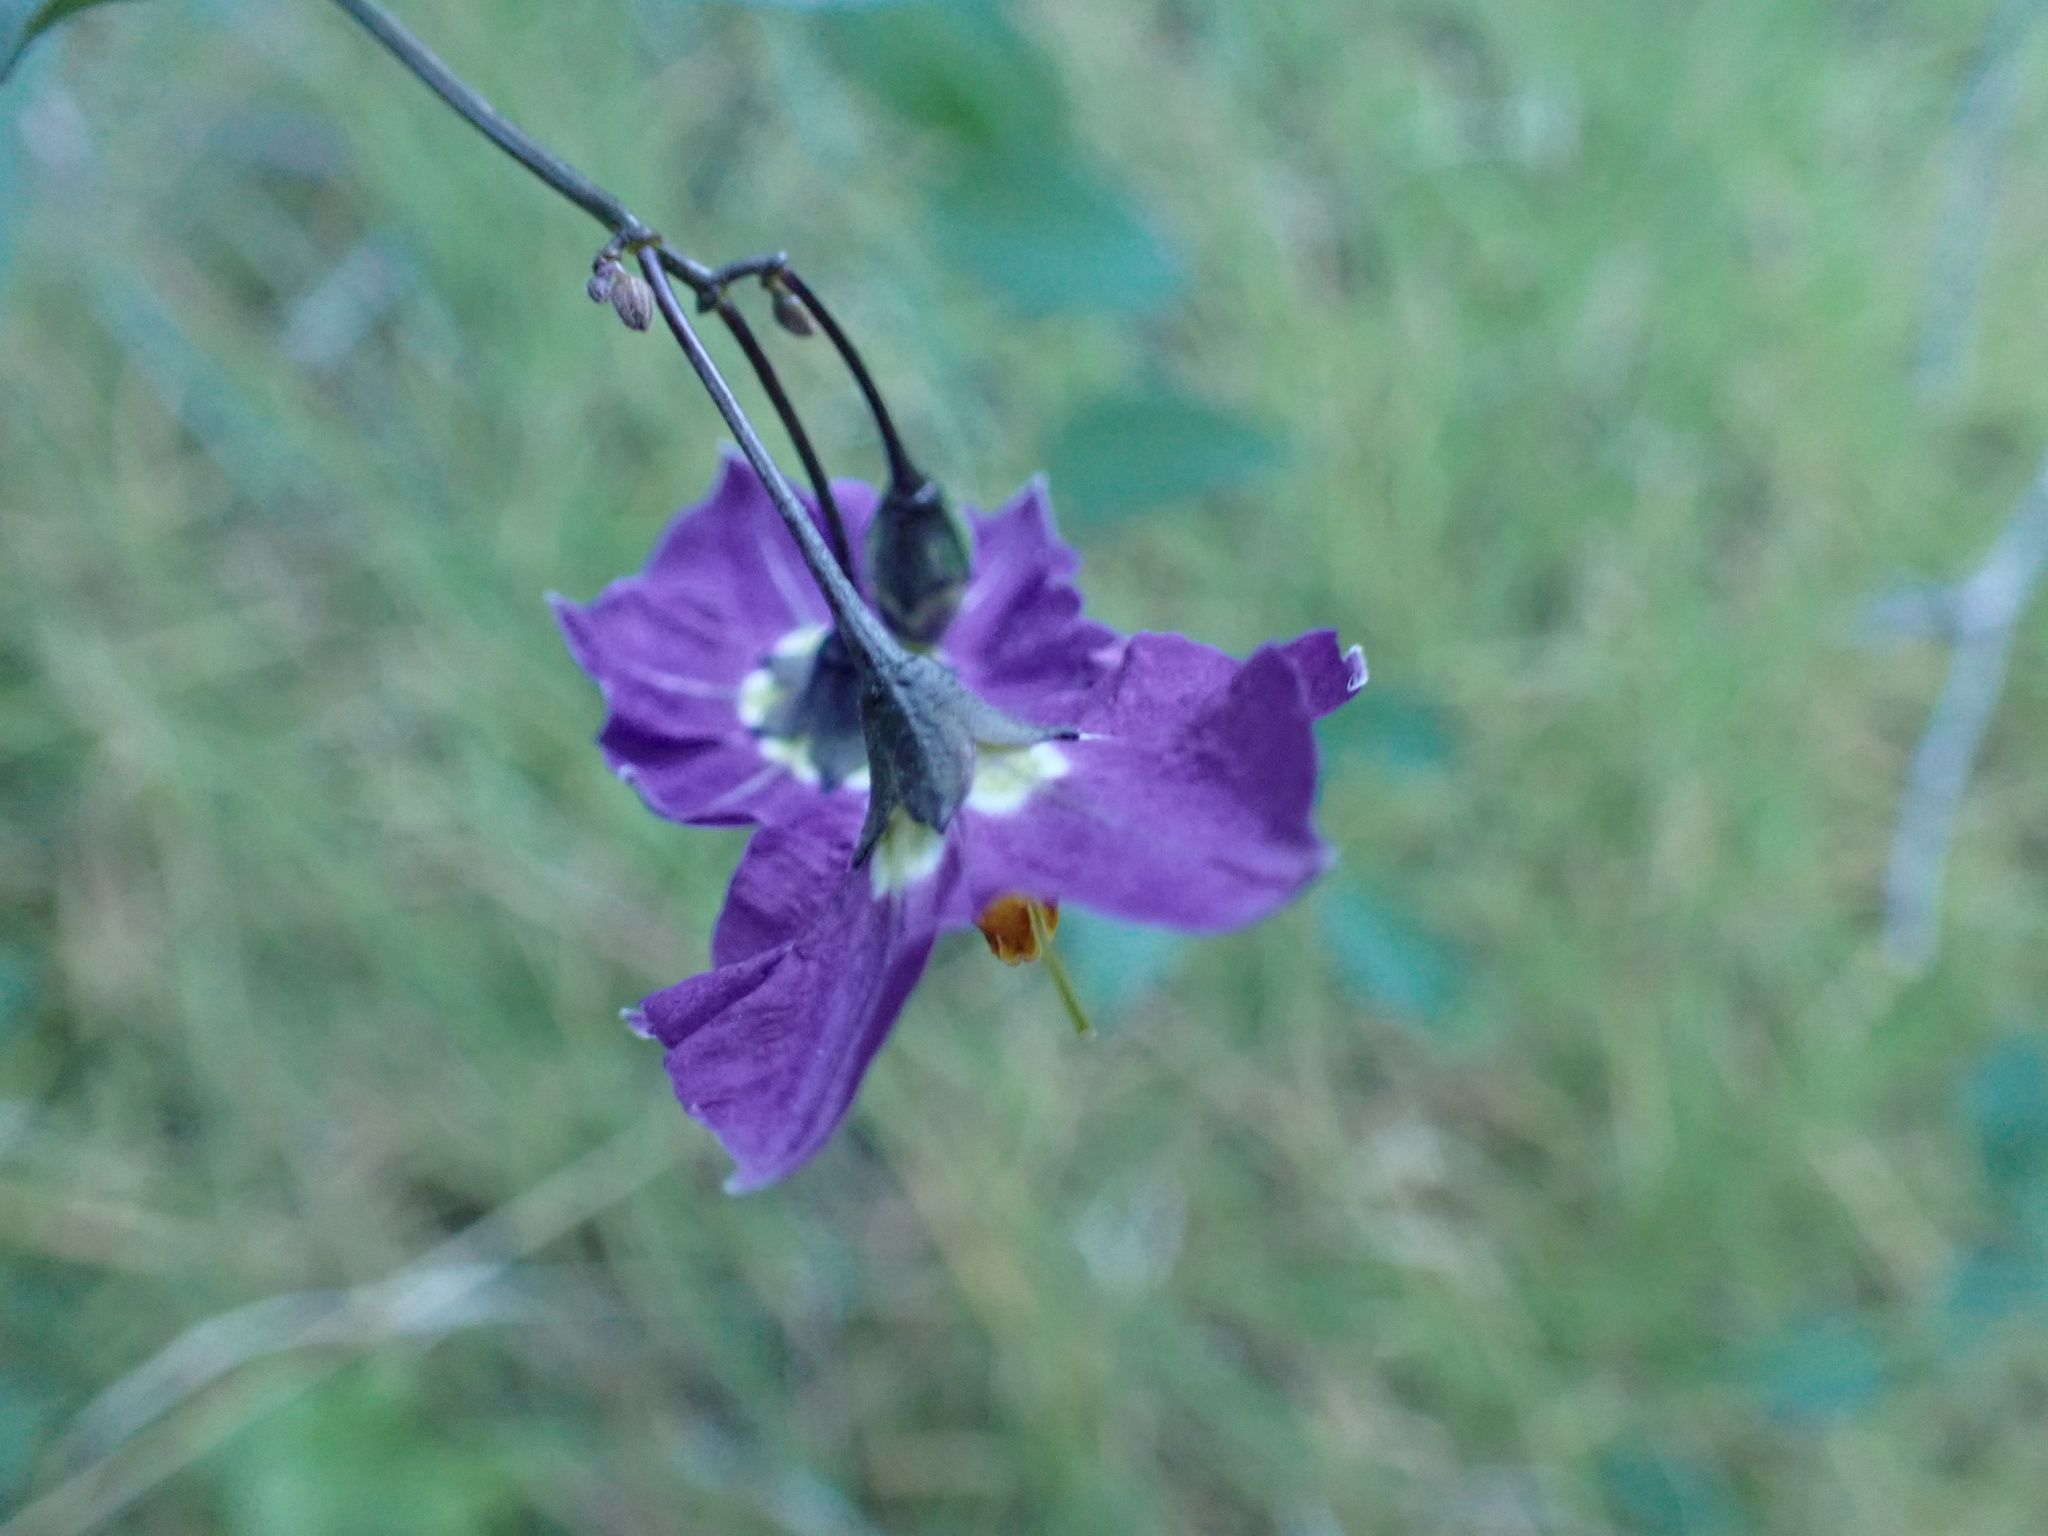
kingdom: Plantae
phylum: Tracheophyta
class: Magnoliopsida
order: Solanales
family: Solanaceae
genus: Solanum
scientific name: Solanum umbelliferum
